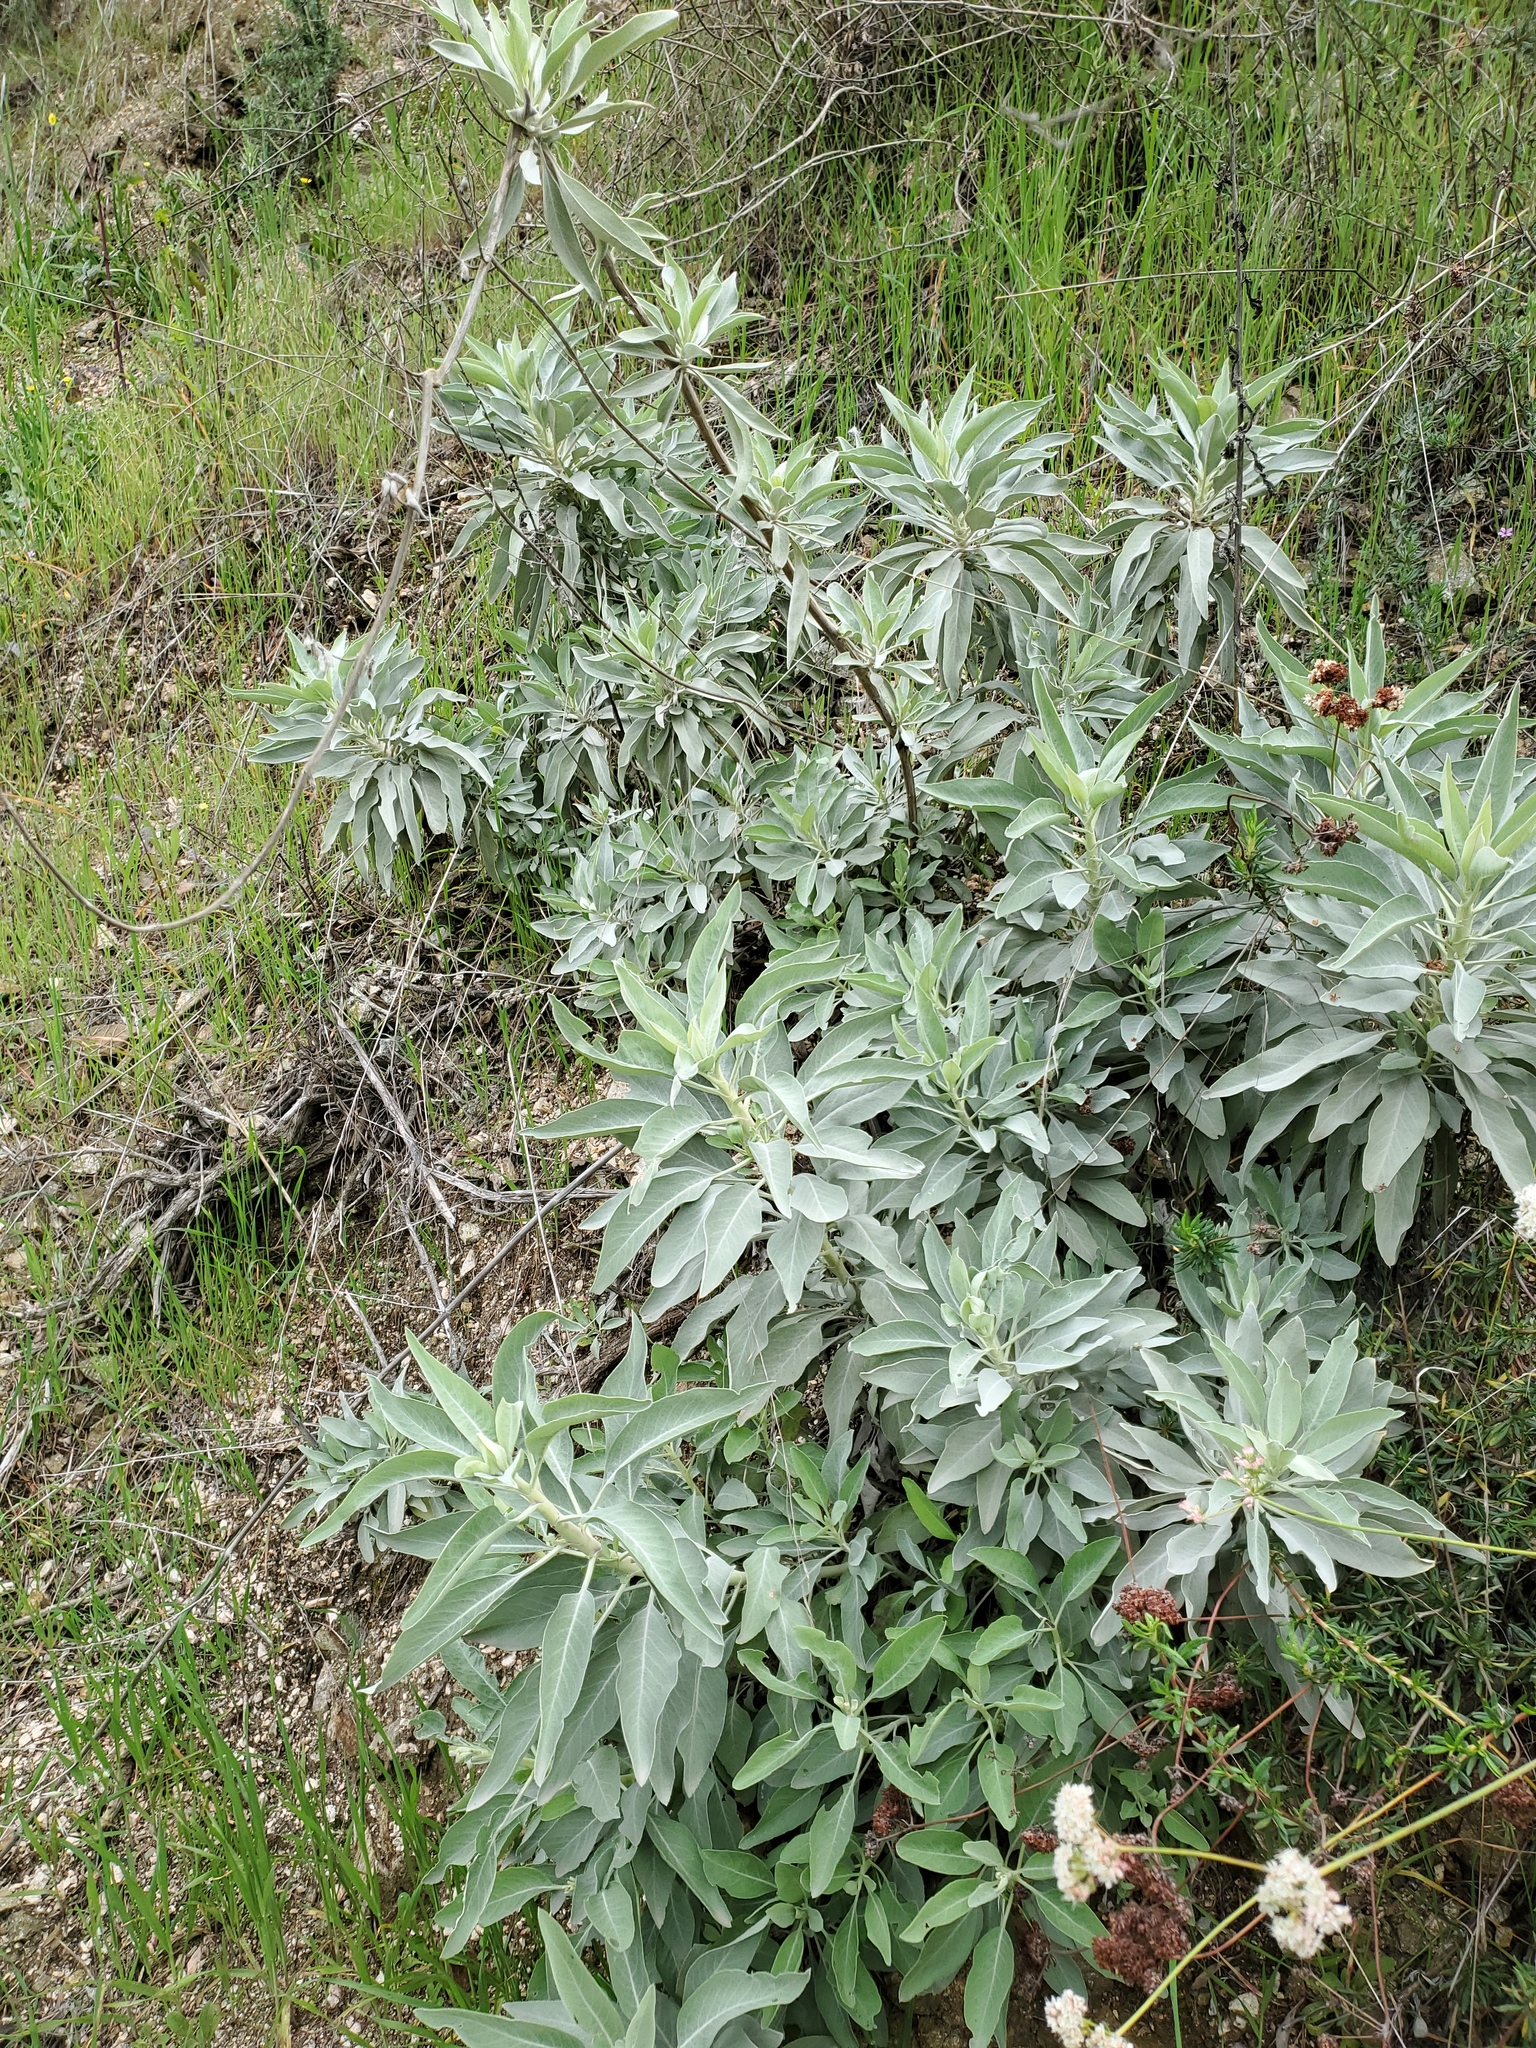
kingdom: Plantae
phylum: Tracheophyta
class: Magnoliopsida
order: Lamiales
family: Lamiaceae
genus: Salvia
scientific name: Salvia apiana
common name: White sage
